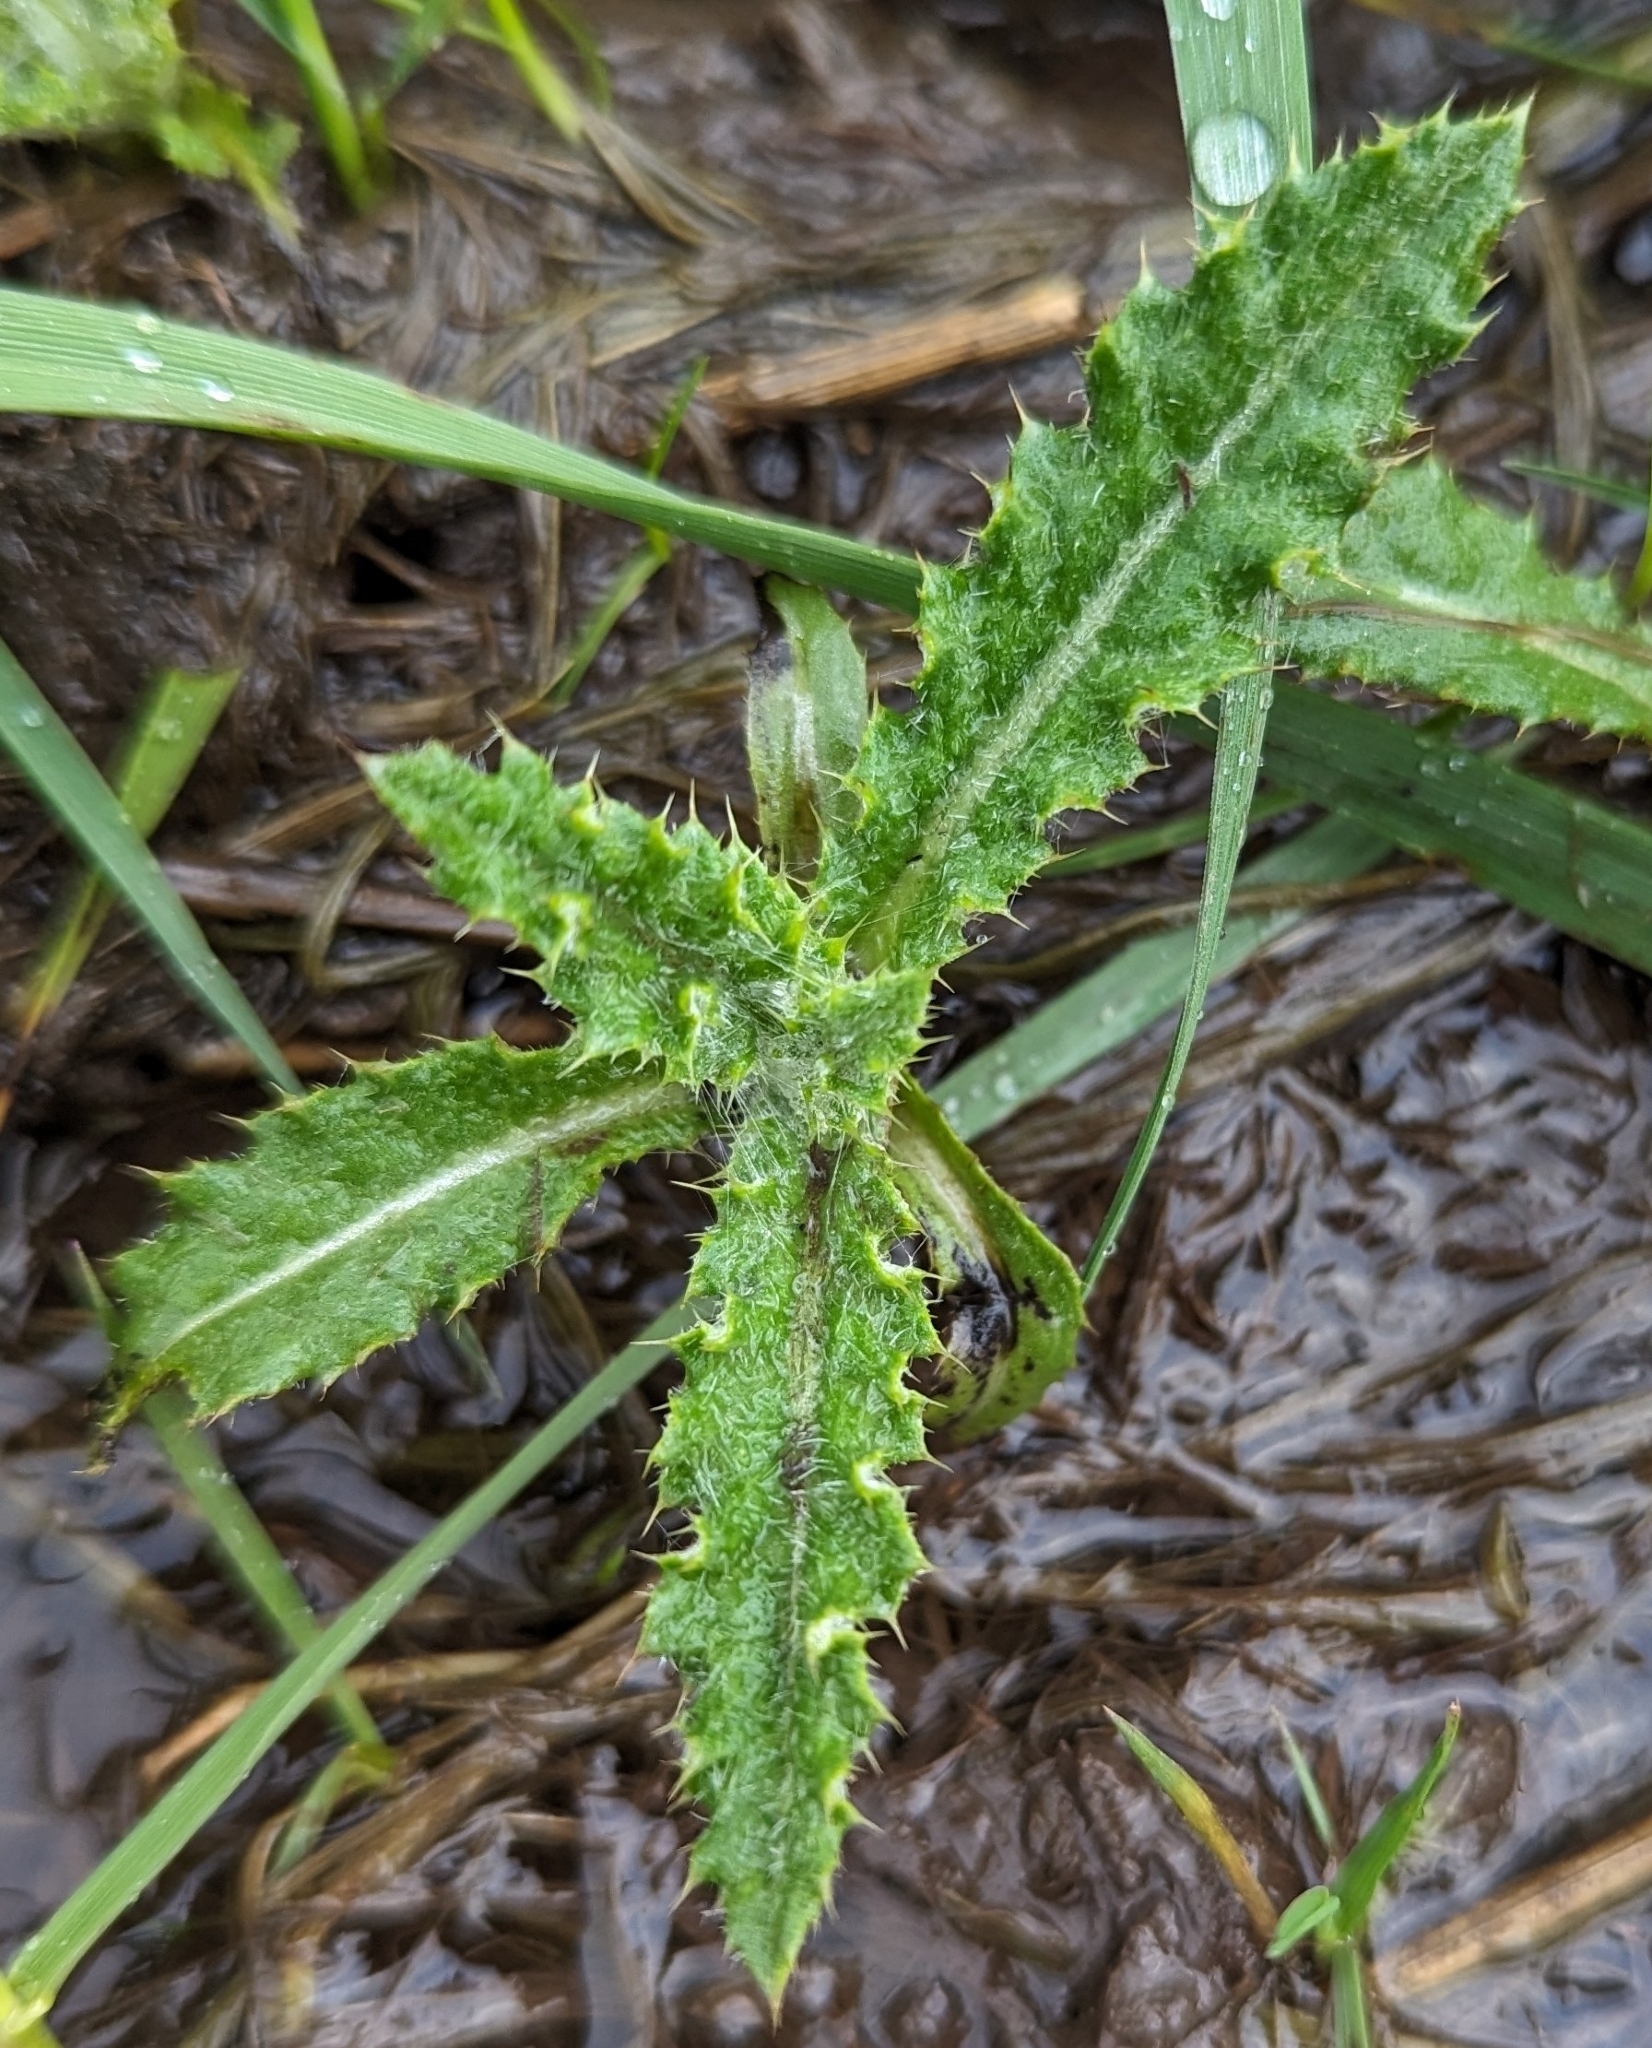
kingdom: Plantae
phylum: Tracheophyta
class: Magnoliopsida
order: Asterales
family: Asteraceae
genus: Cirsium
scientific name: Cirsium arvense
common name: Creeping thistle
